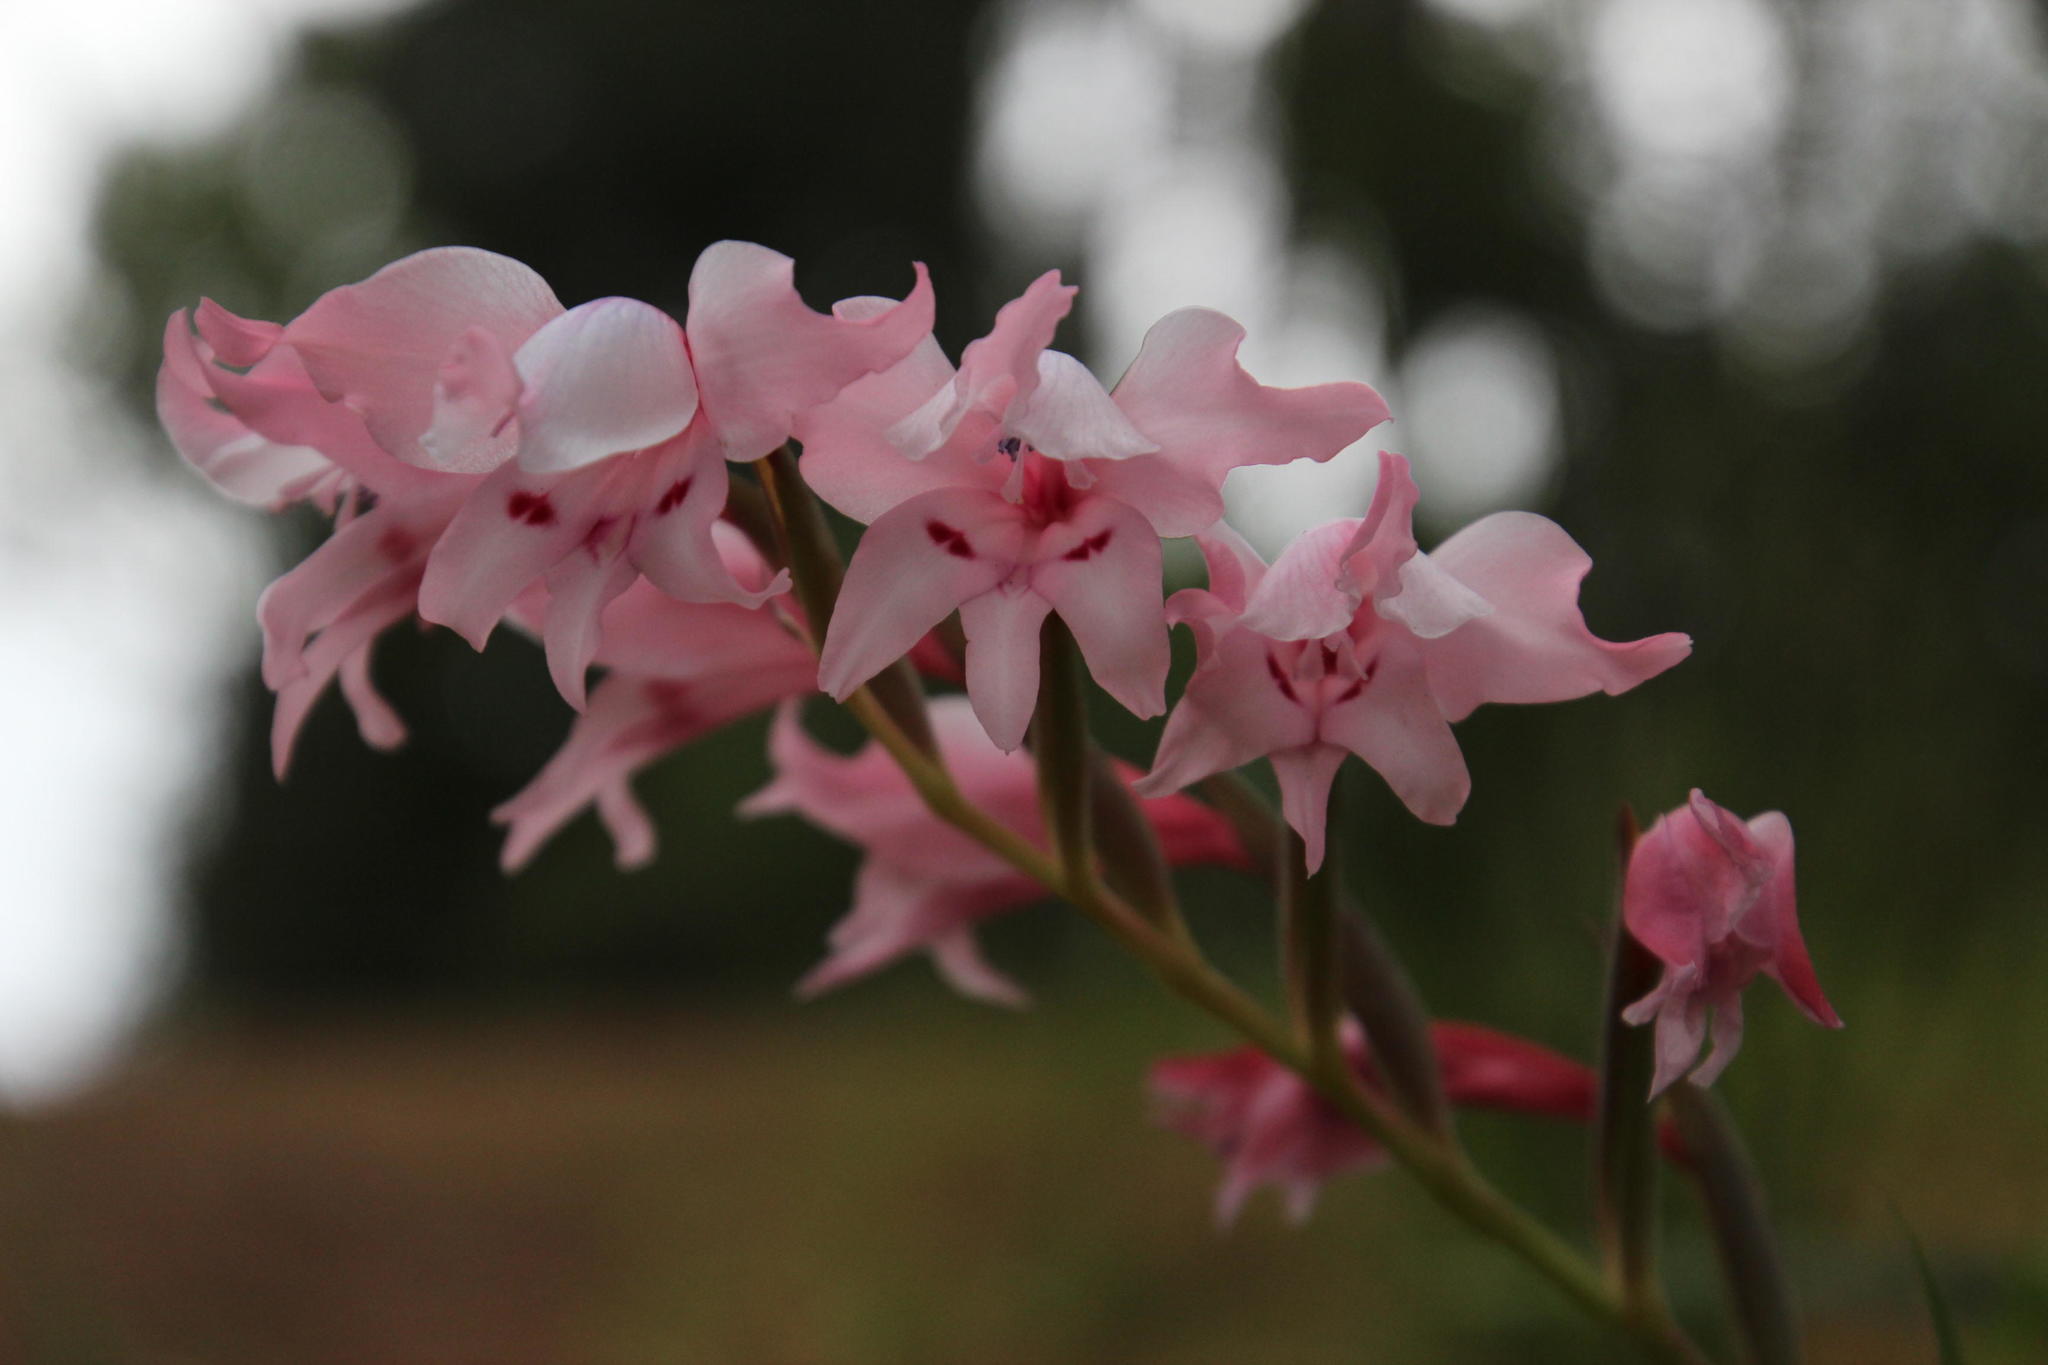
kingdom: Plantae
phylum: Tracheophyta
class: Liliopsida
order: Asparagales
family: Iridaceae
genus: Gladiolus
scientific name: Gladiolus carneus
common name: Painted-lady
